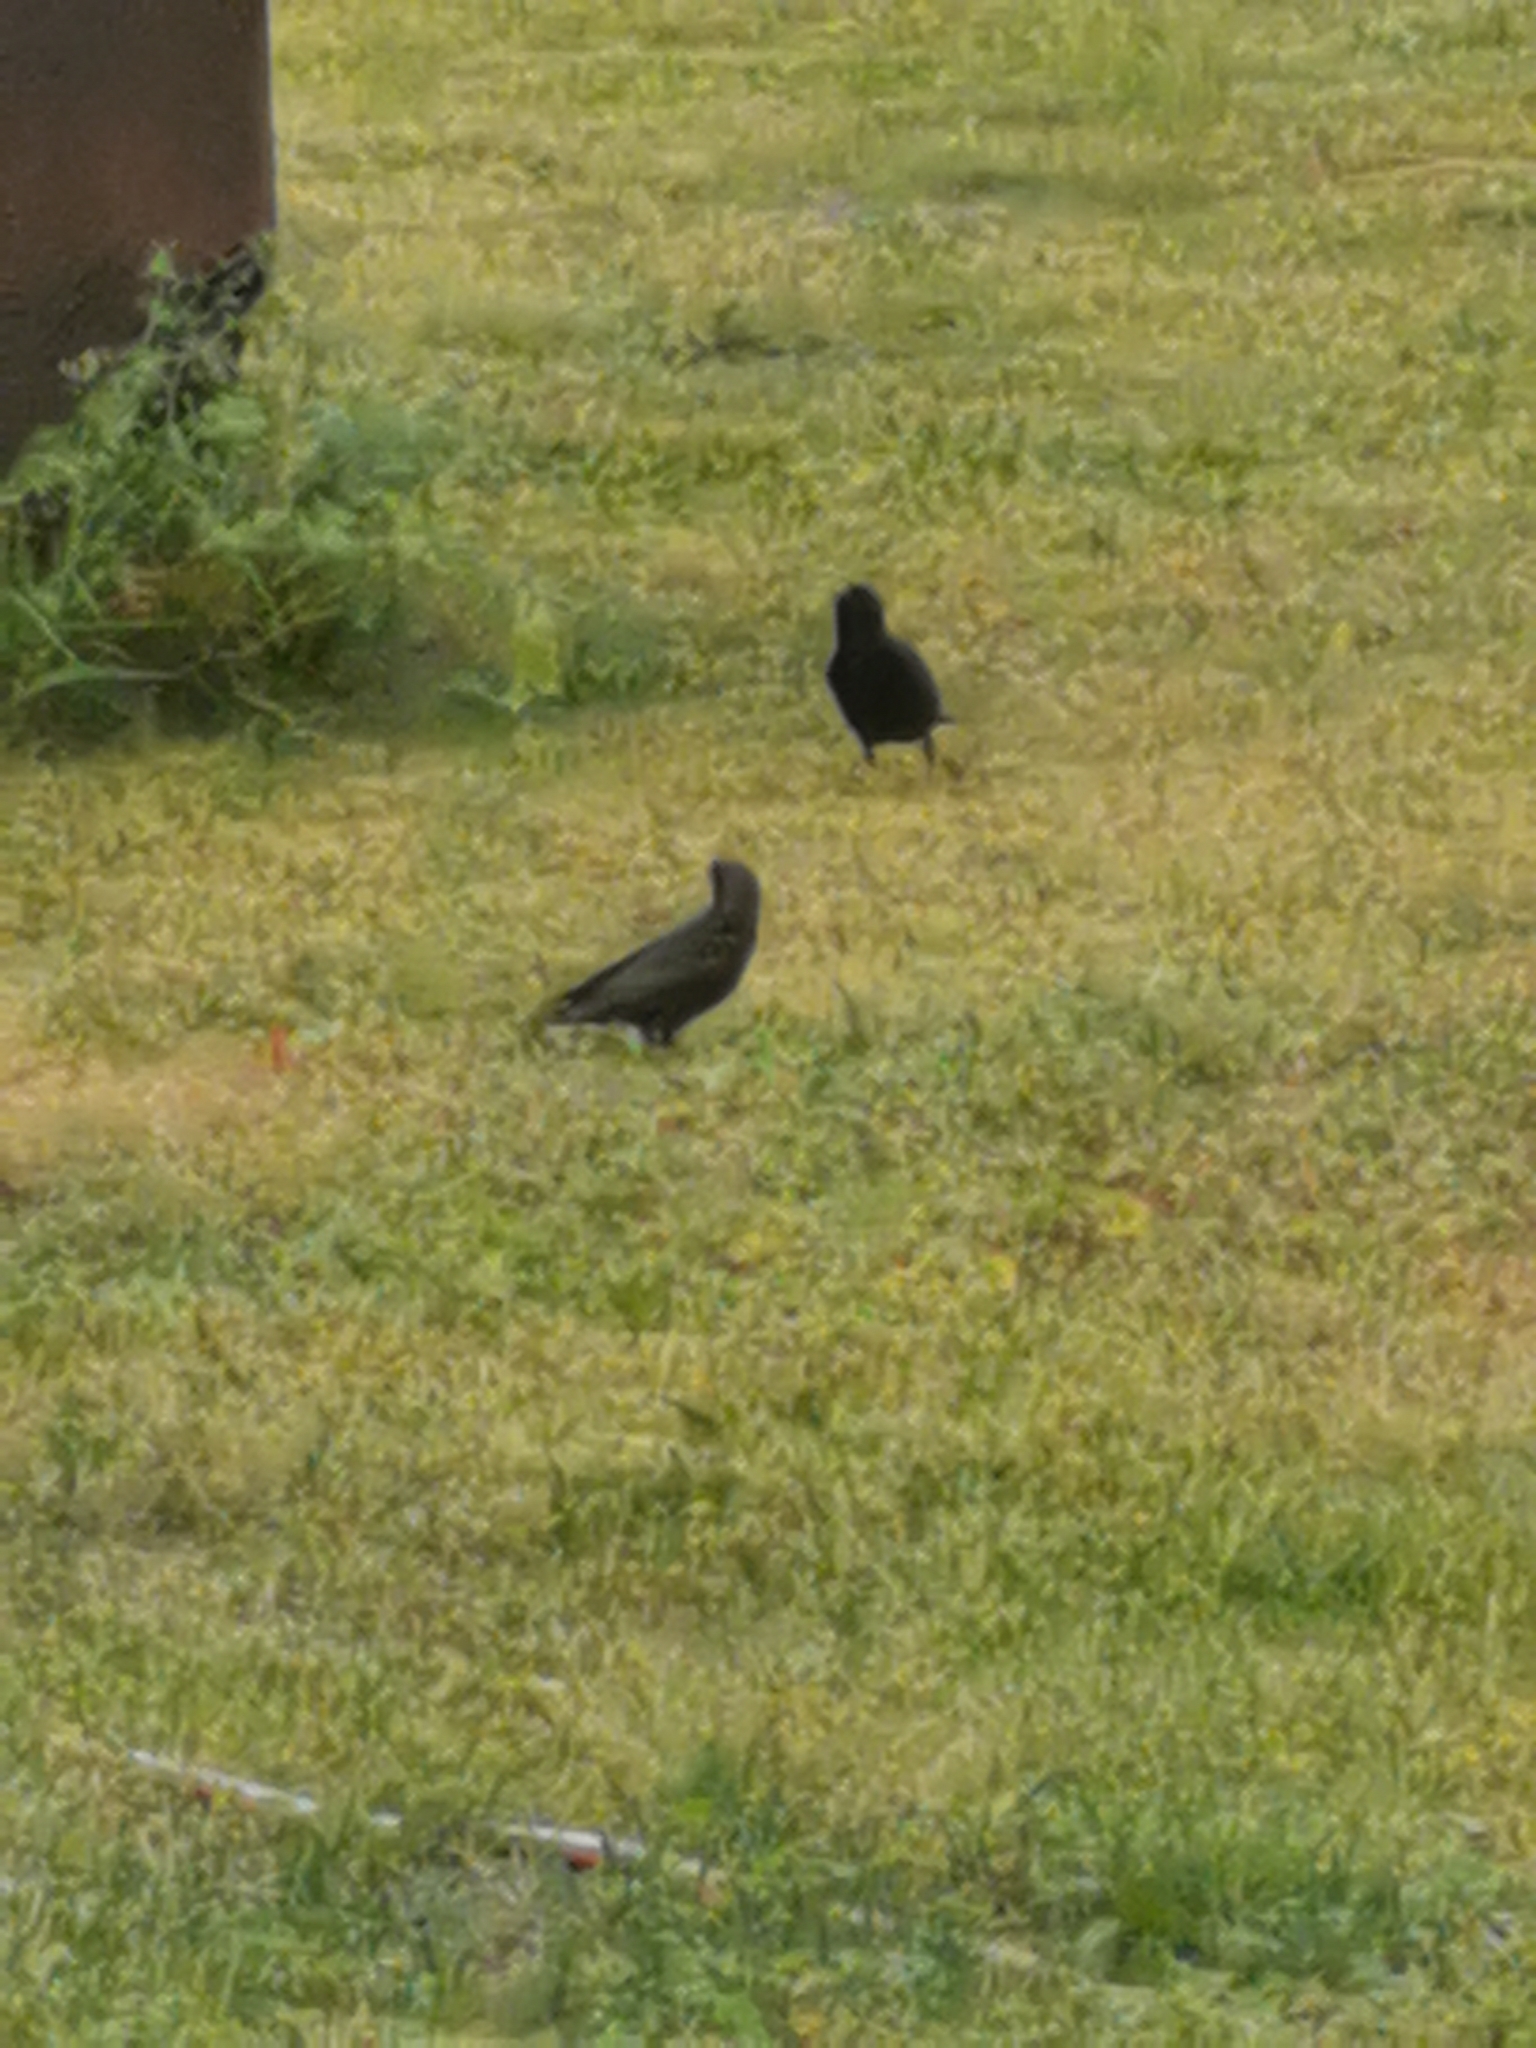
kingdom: Animalia
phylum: Chordata
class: Aves
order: Passeriformes
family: Sturnidae
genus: Sturnus
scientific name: Sturnus vulgaris
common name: Common starling
